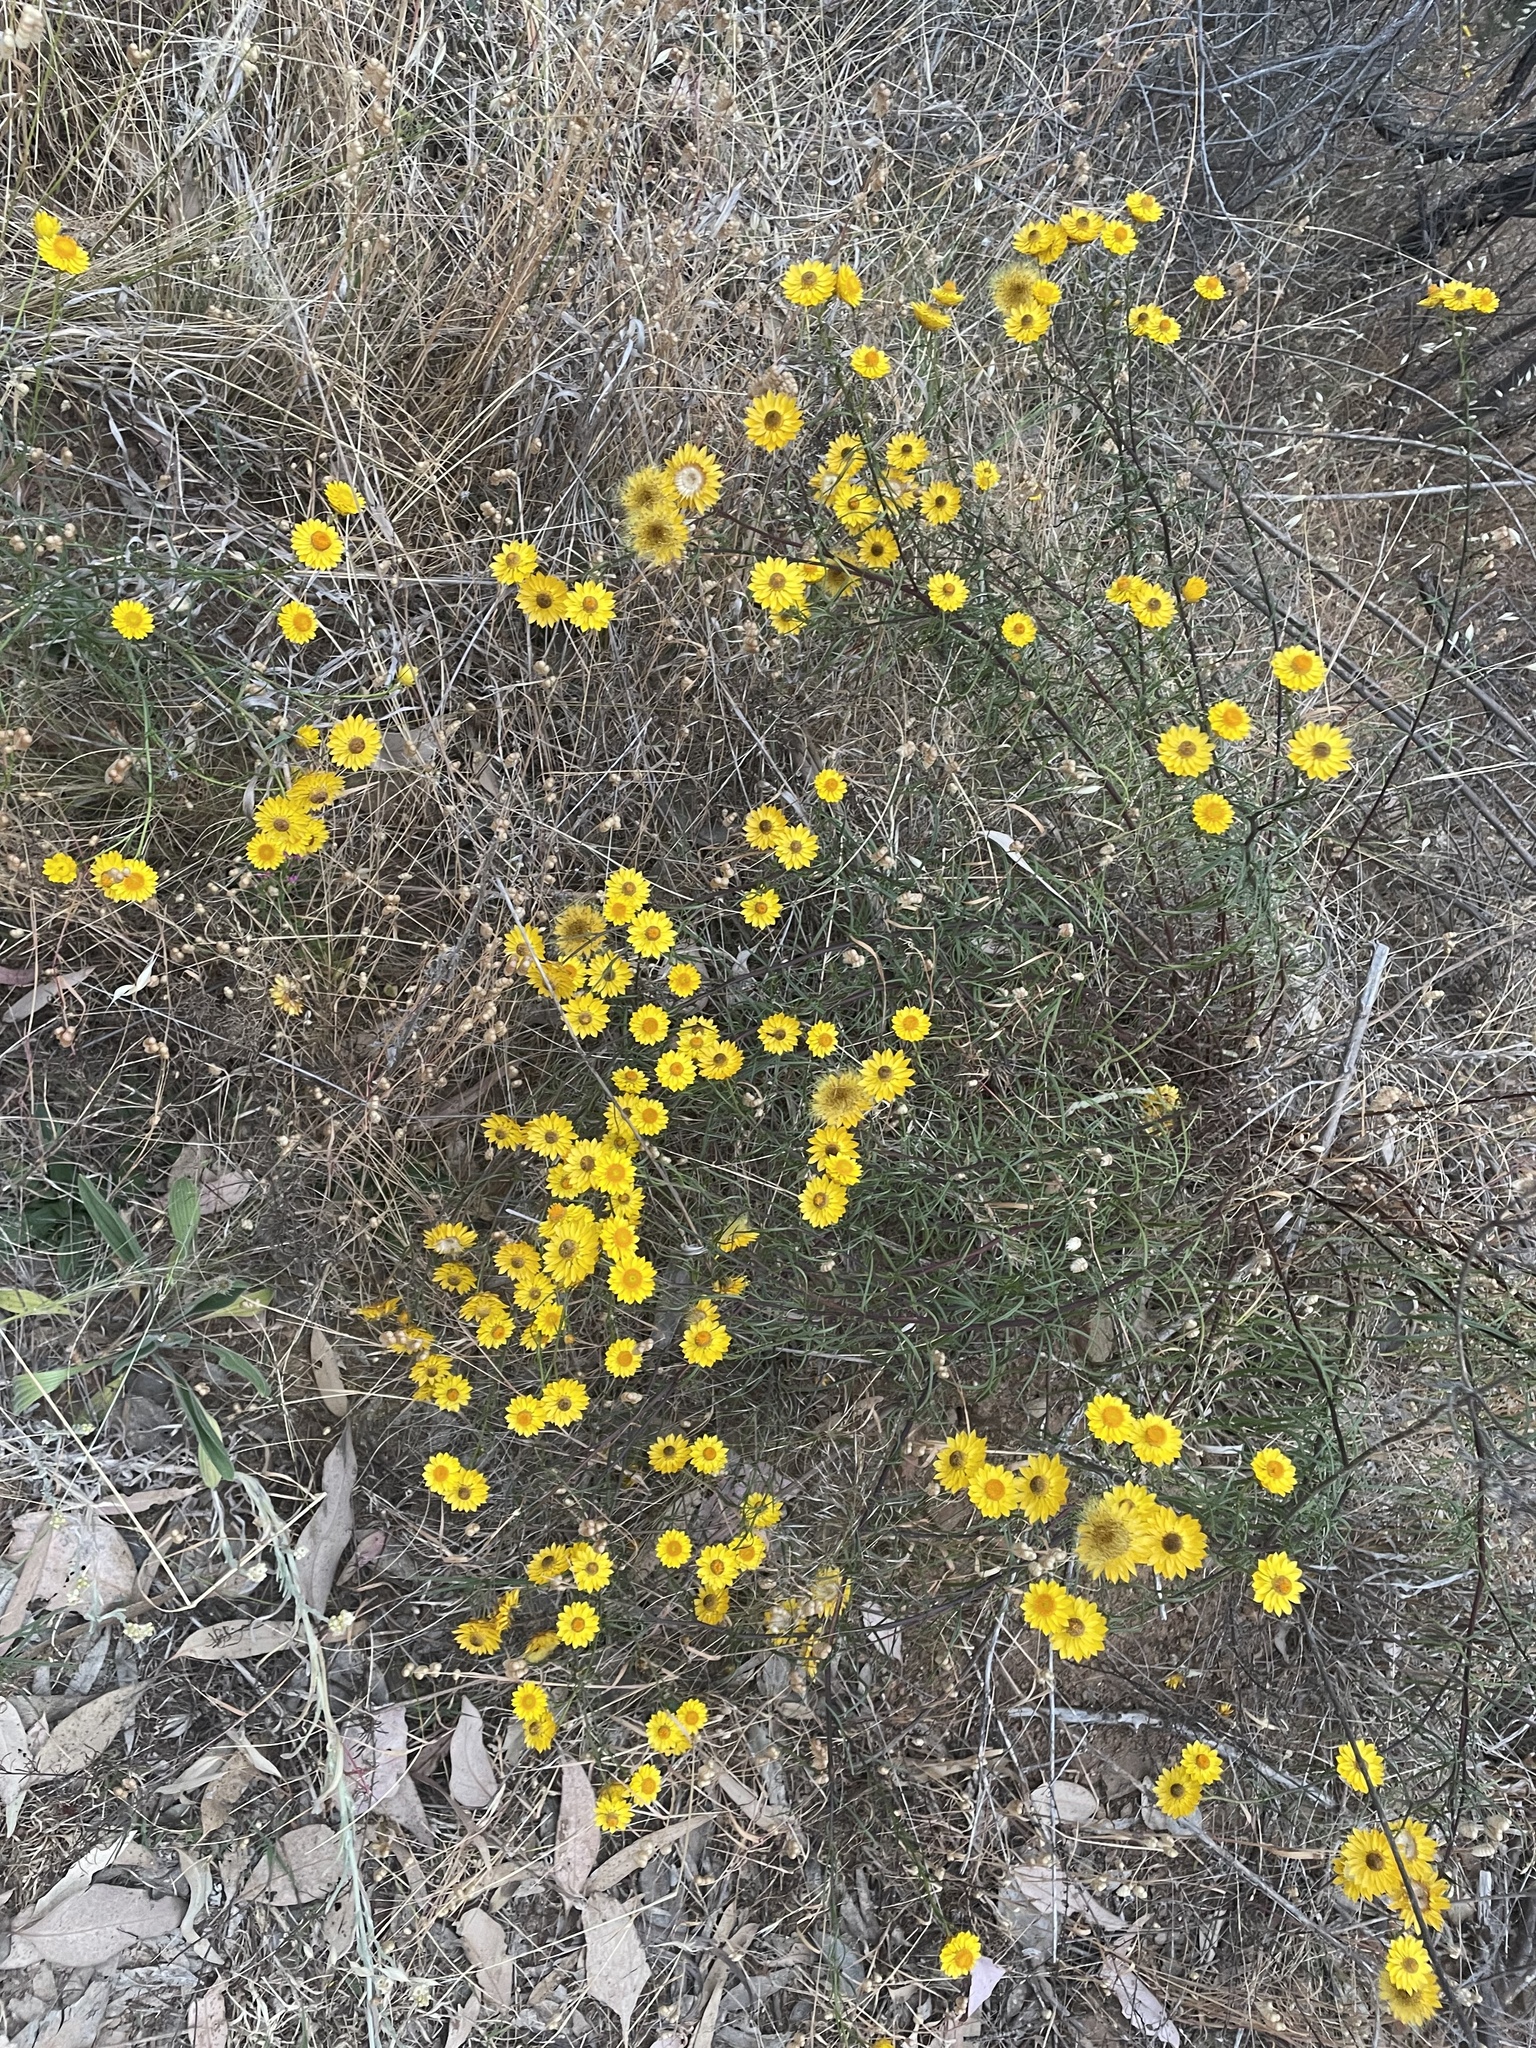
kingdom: Plantae
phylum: Tracheophyta
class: Magnoliopsida
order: Asterales
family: Asteraceae
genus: Xerochrysum
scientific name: Xerochrysum viscosum
